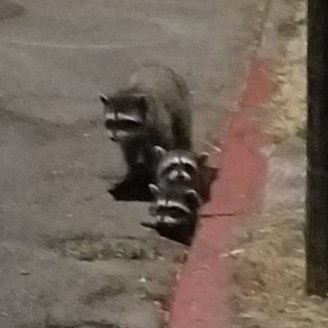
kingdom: Animalia
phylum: Chordata
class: Mammalia
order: Carnivora
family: Procyonidae
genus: Procyon
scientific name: Procyon lotor
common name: Raccoon
